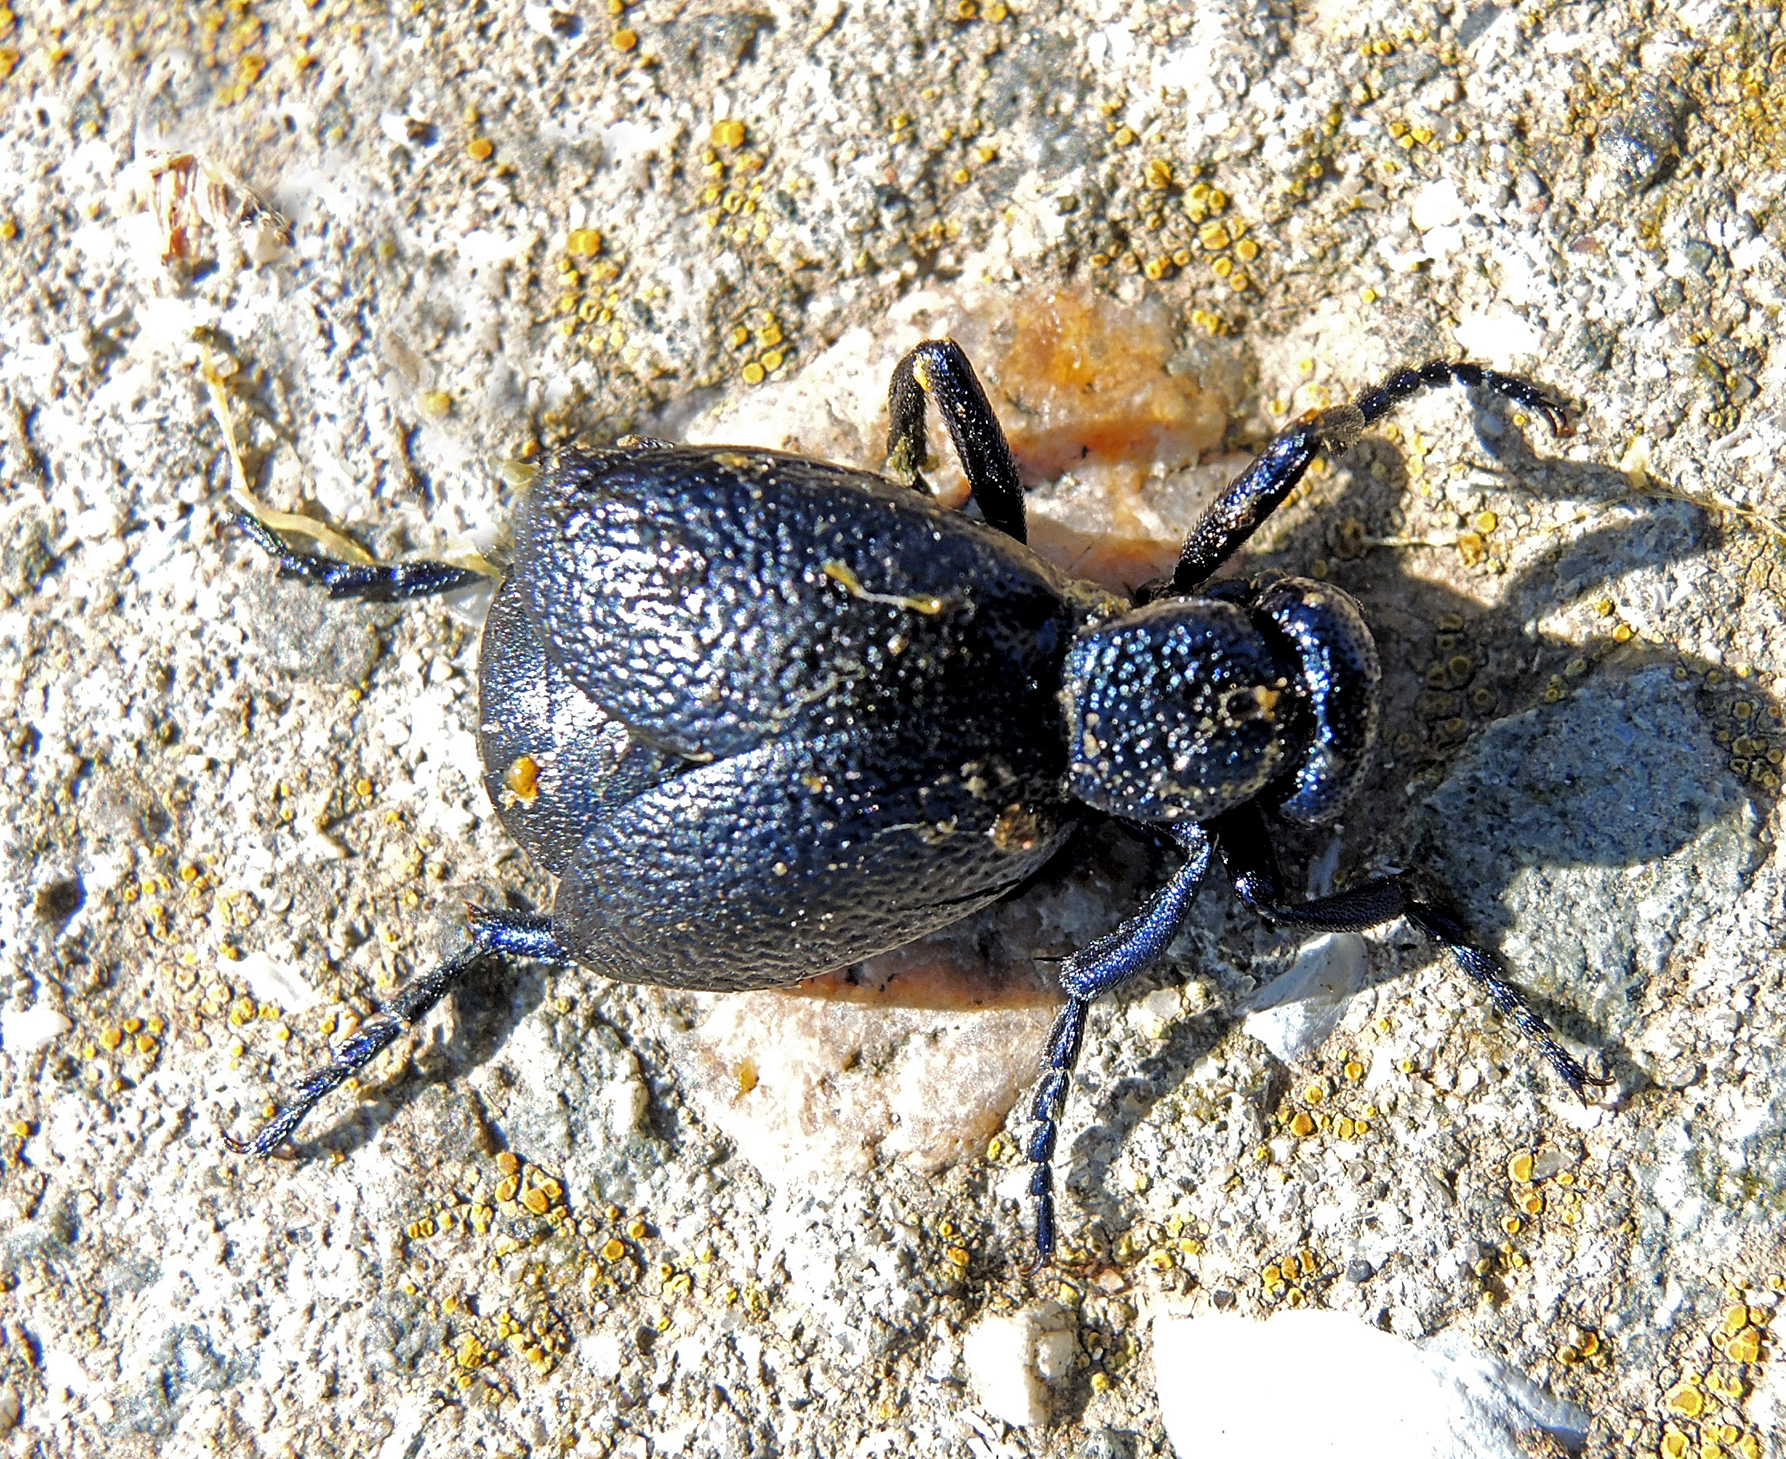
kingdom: Animalia
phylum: Arthropoda
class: Insecta
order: Coleoptera
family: Meloidae
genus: Meloe
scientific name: Meloe proscarabaeus
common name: Black oil-beetle
